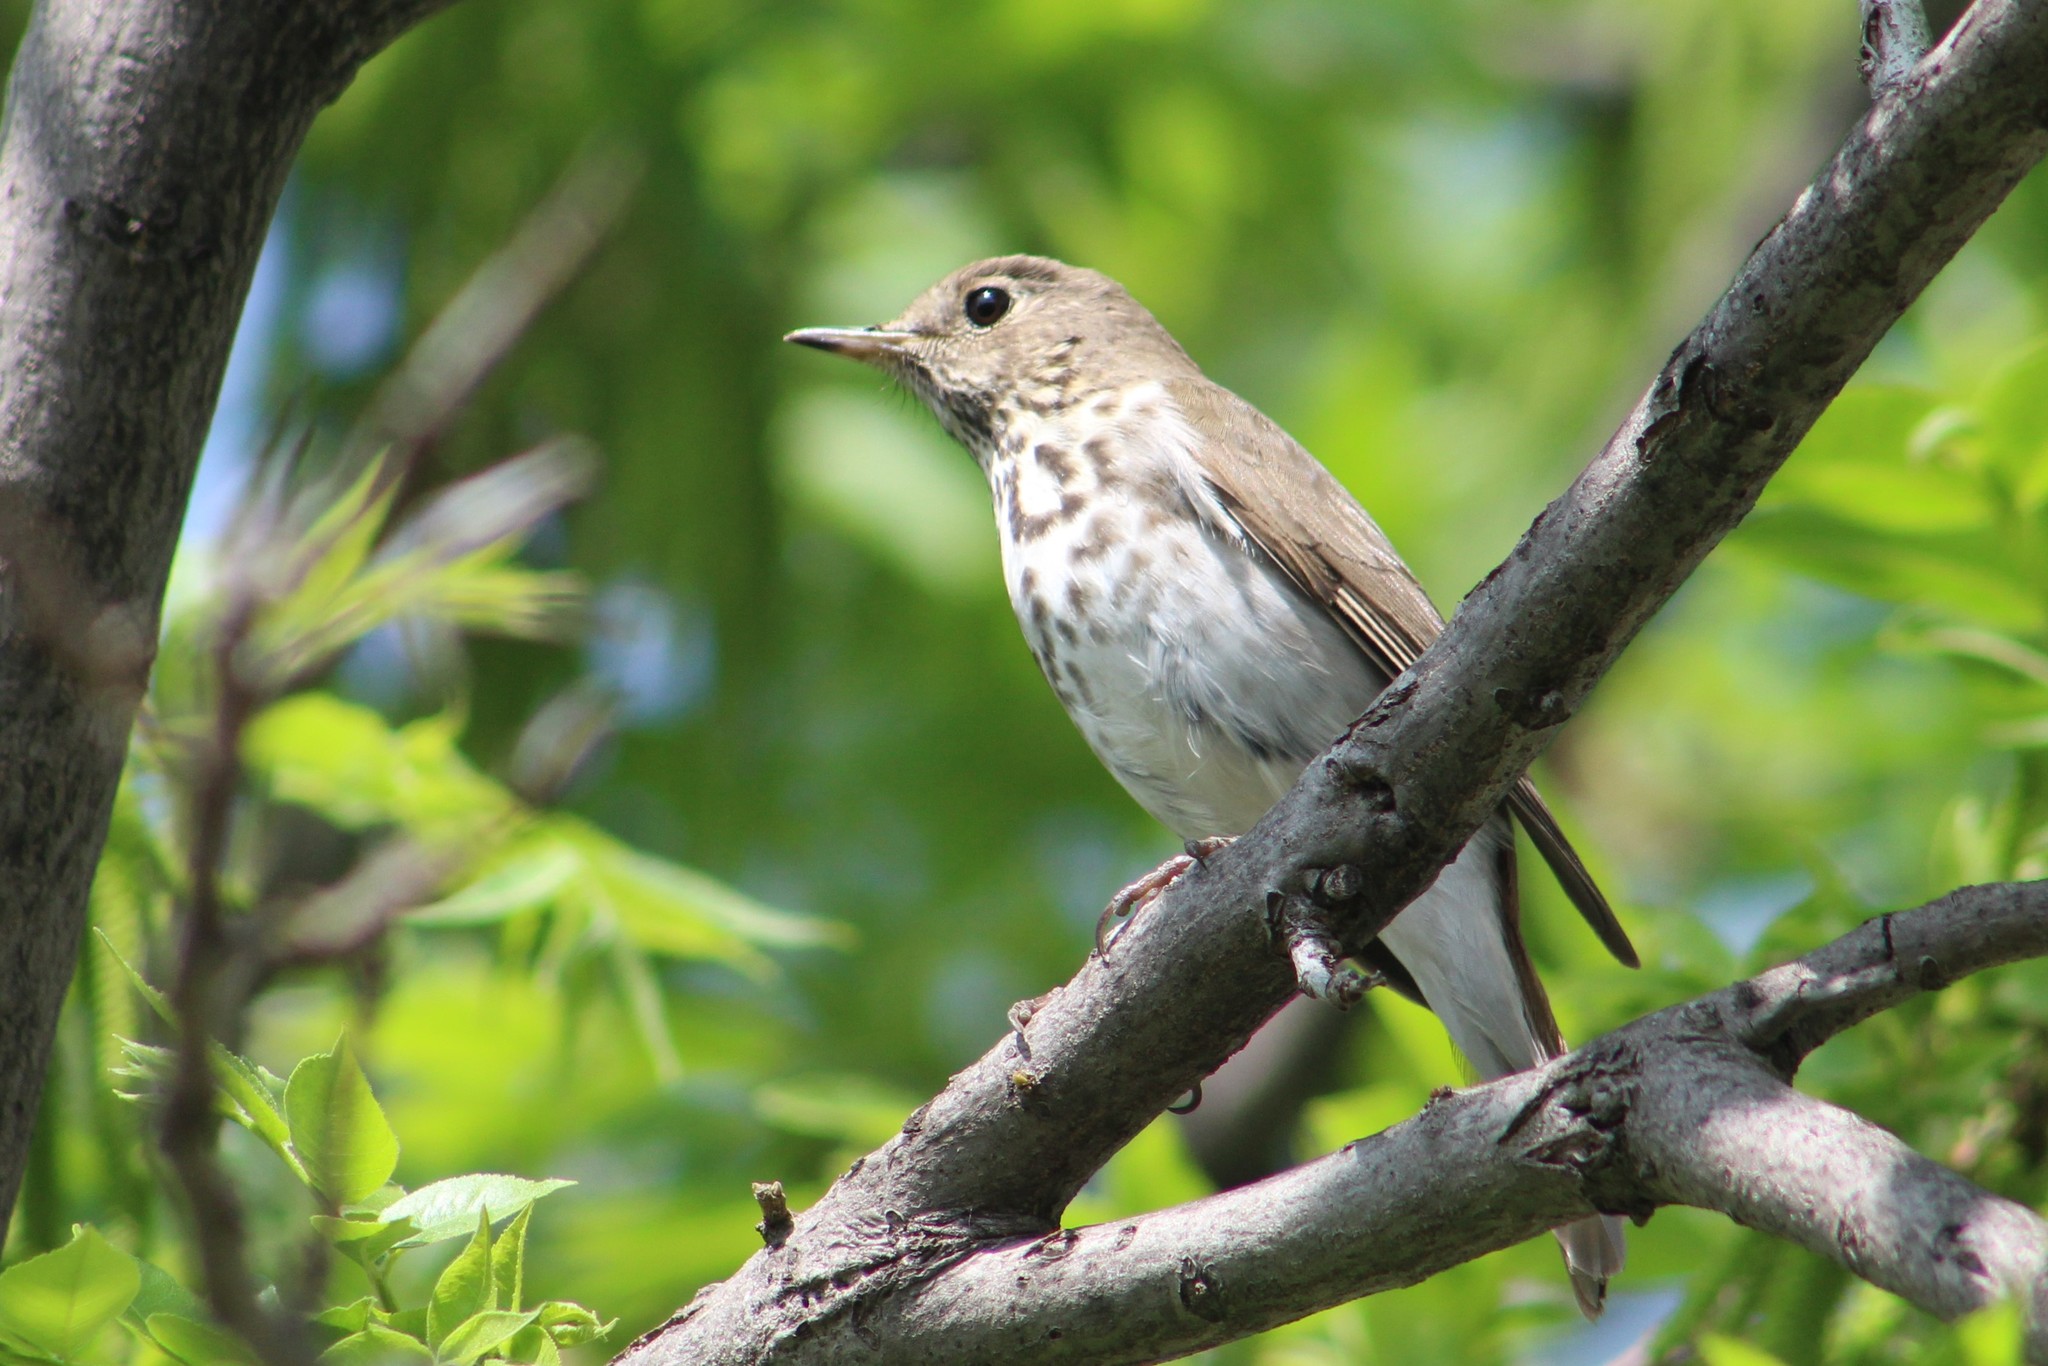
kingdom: Animalia
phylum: Chordata
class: Aves
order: Passeriformes
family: Turdidae
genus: Catharus
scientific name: Catharus guttatus
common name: Hermit thrush
